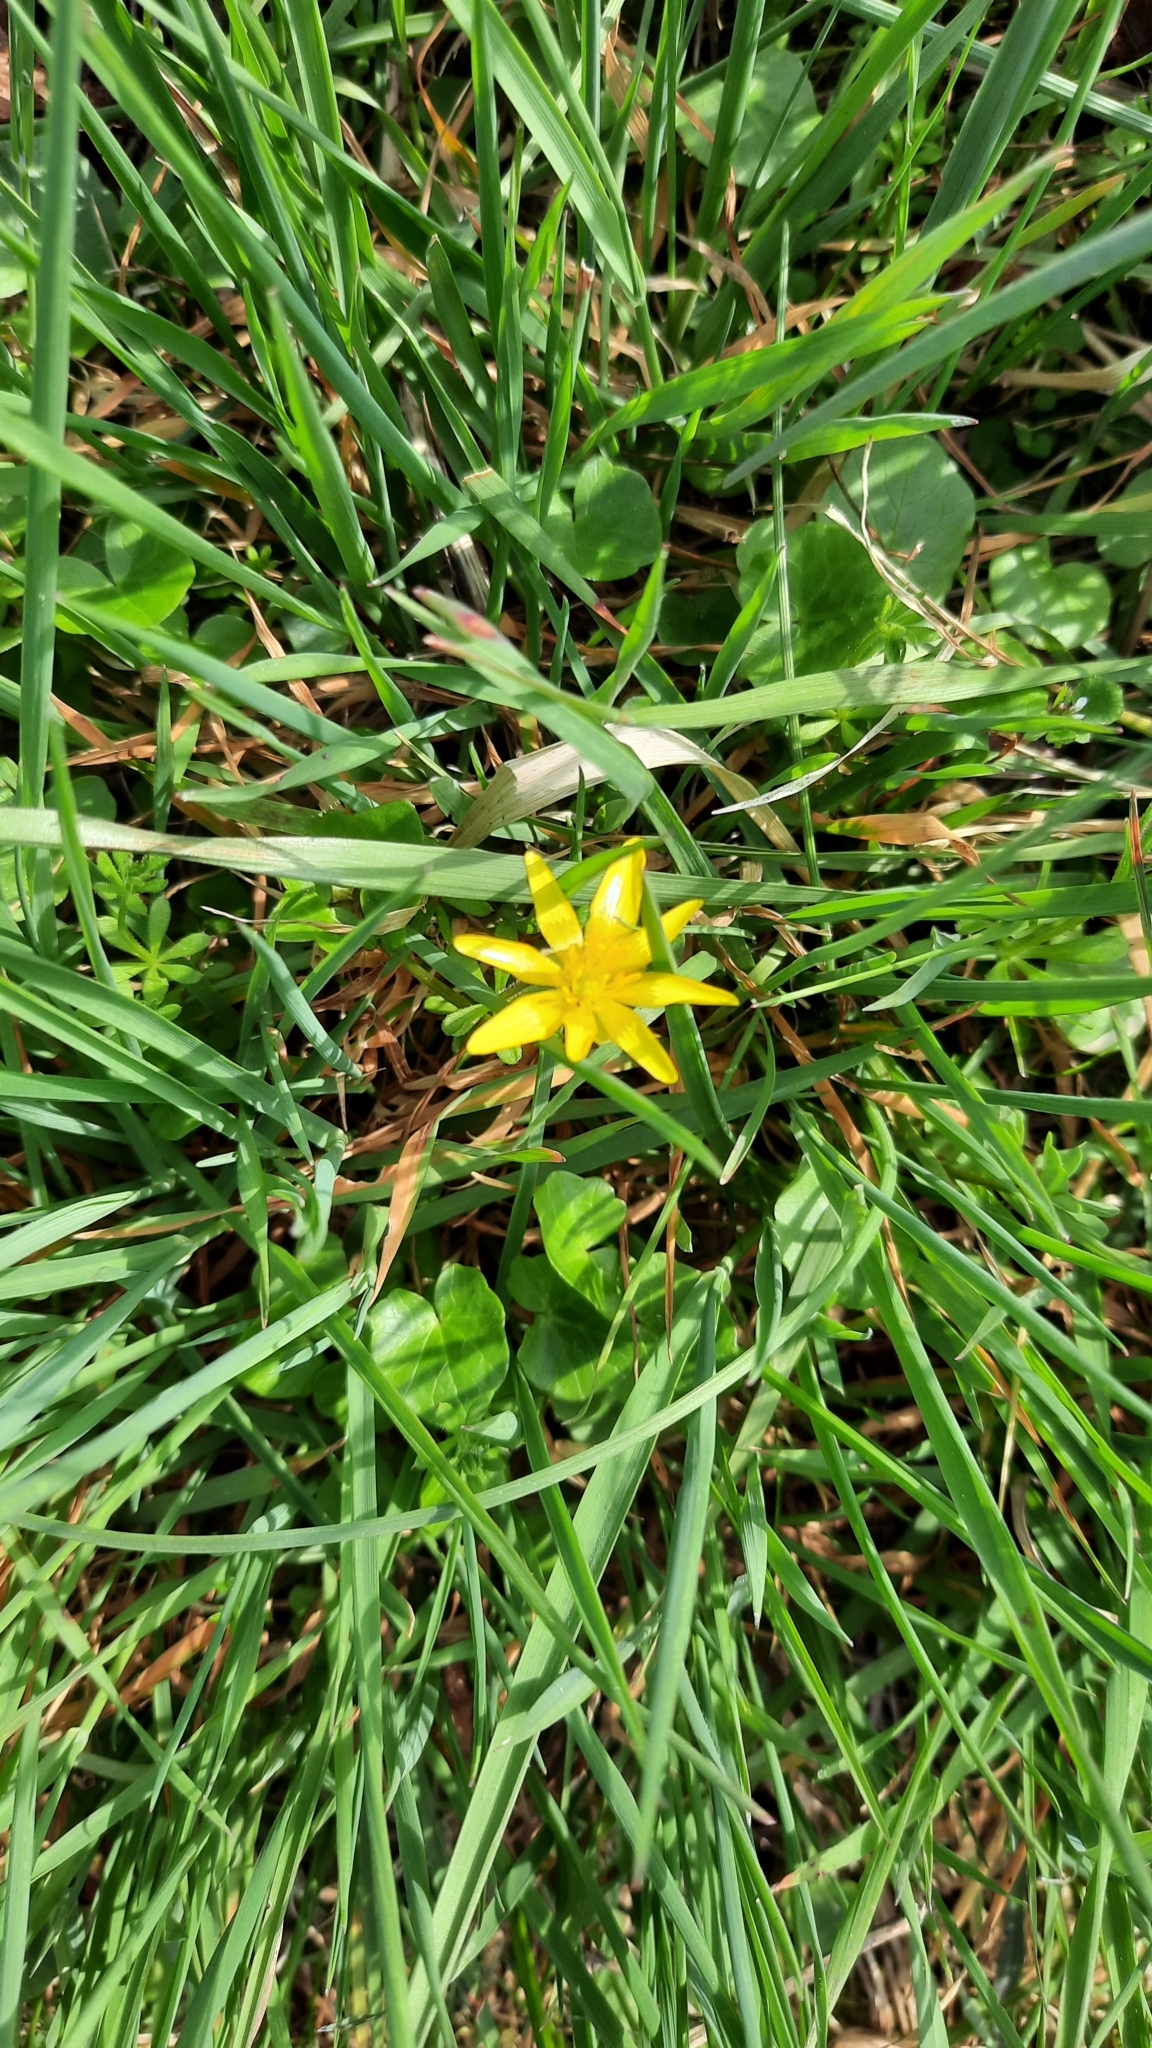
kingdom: Plantae
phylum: Tracheophyta
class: Magnoliopsida
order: Ranunculales
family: Ranunculaceae
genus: Ficaria
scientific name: Ficaria verna
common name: Lesser celandine
